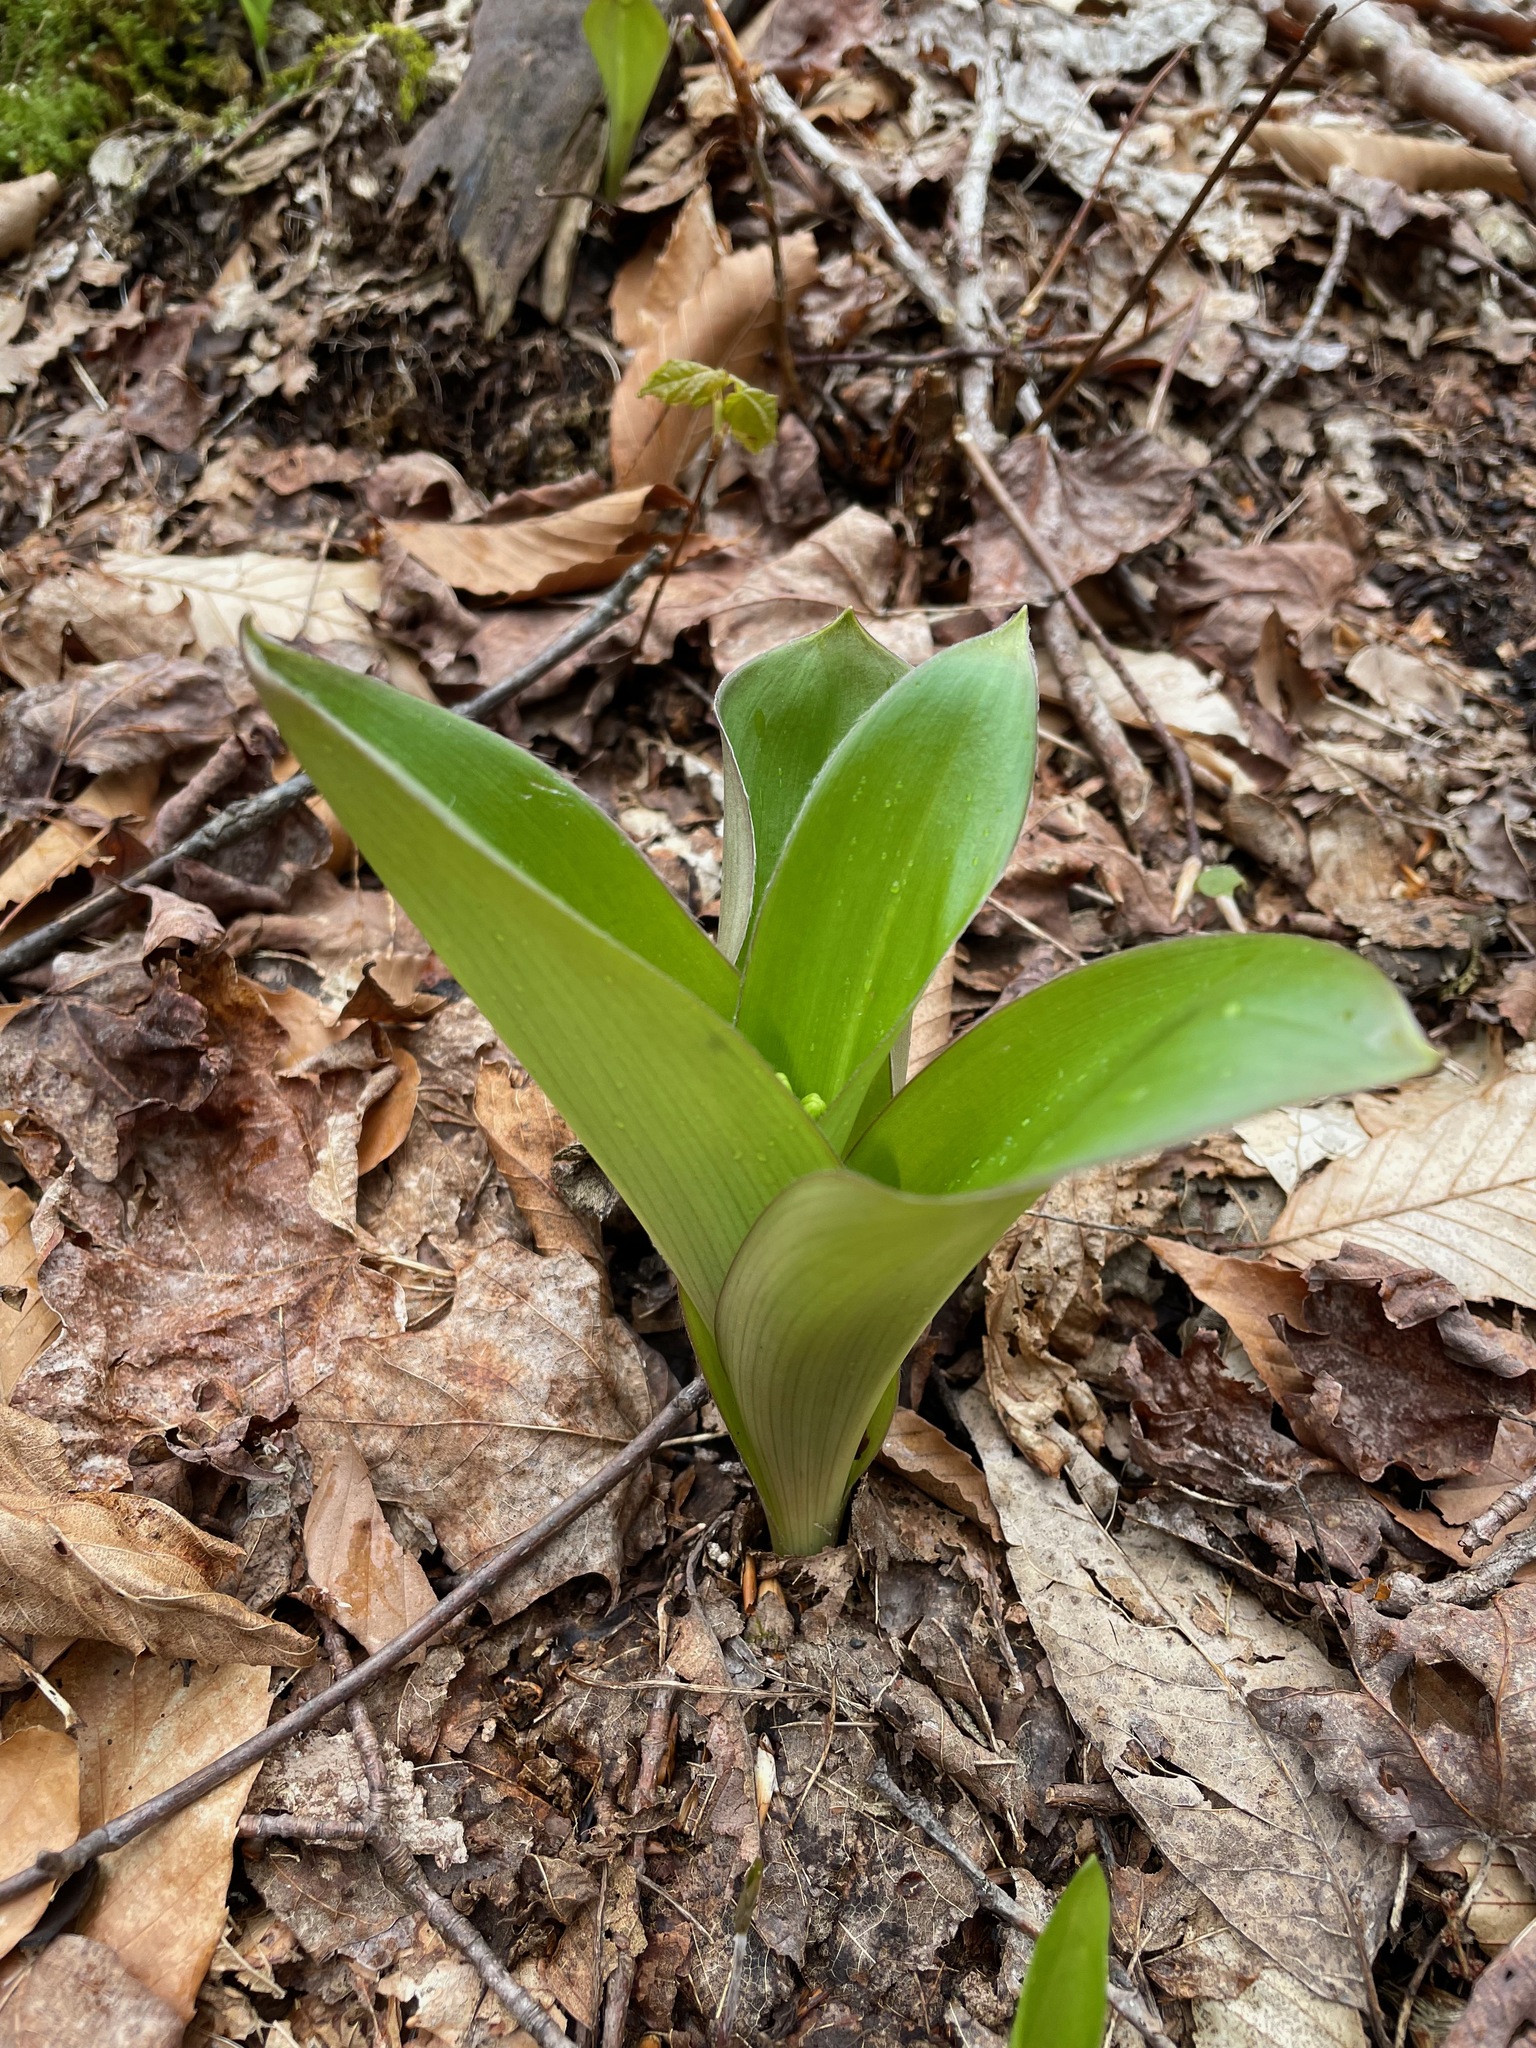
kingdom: Plantae
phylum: Tracheophyta
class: Liliopsida
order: Liliales
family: Liliaceae
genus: Clintonia
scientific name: Clintonia borealis
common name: Yellow clintonia
